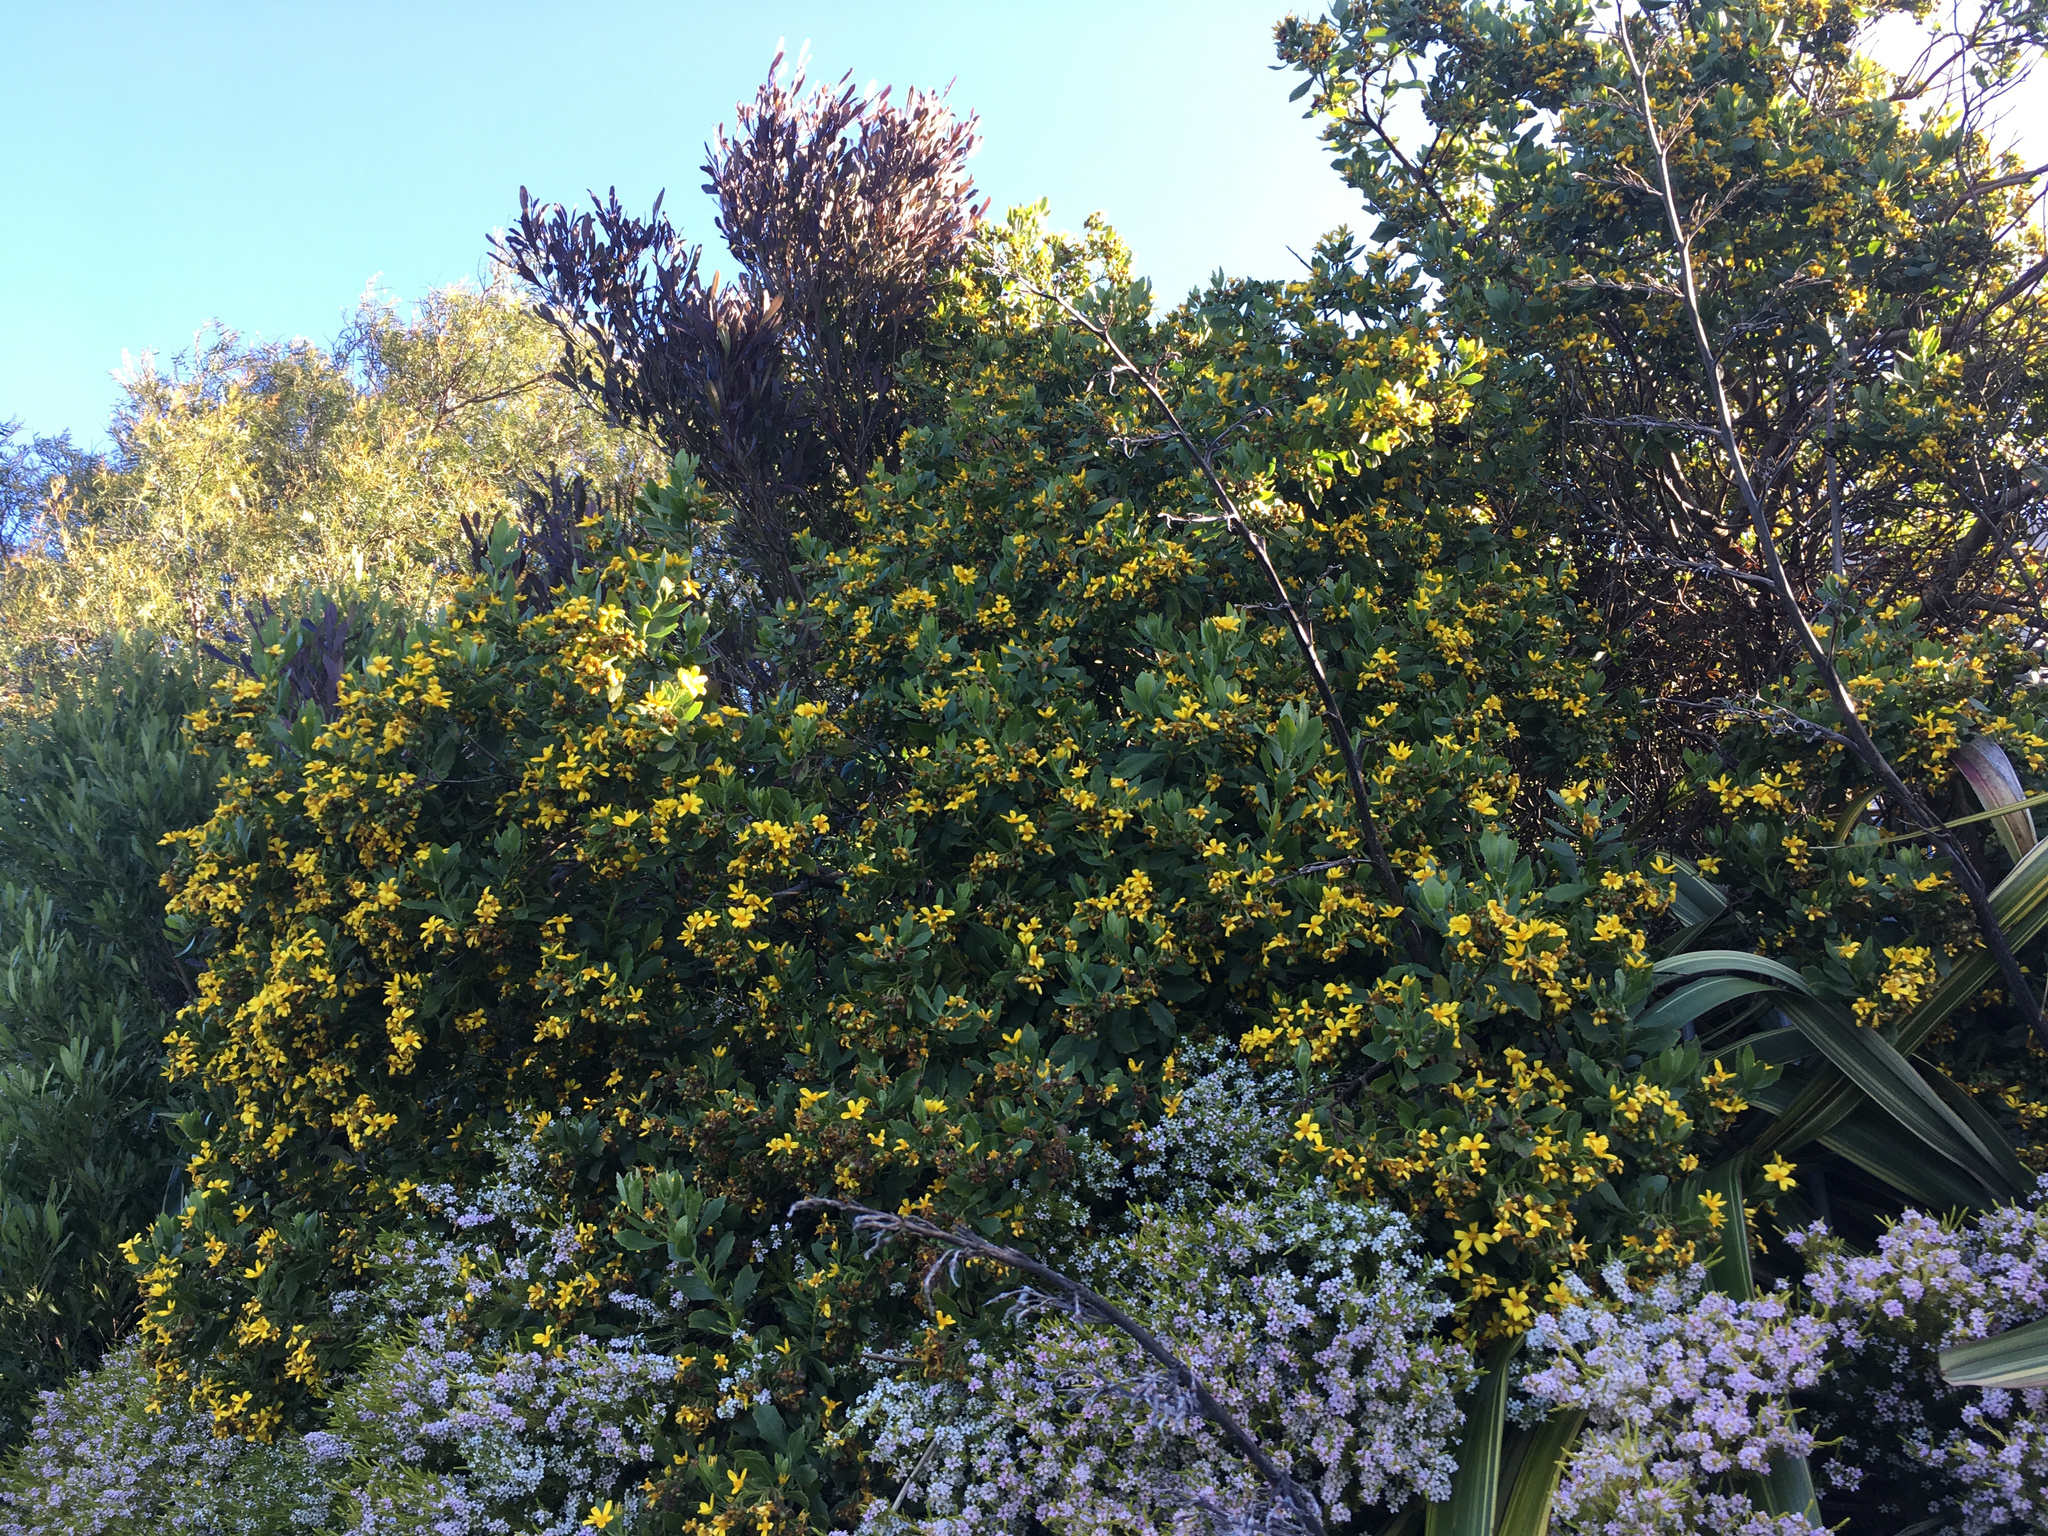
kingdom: Plantae
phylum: Tracheophyta
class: Magnoliopsida
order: Asterales
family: Asteraceae
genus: Osteospermum
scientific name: Osteospermum moniliferum
